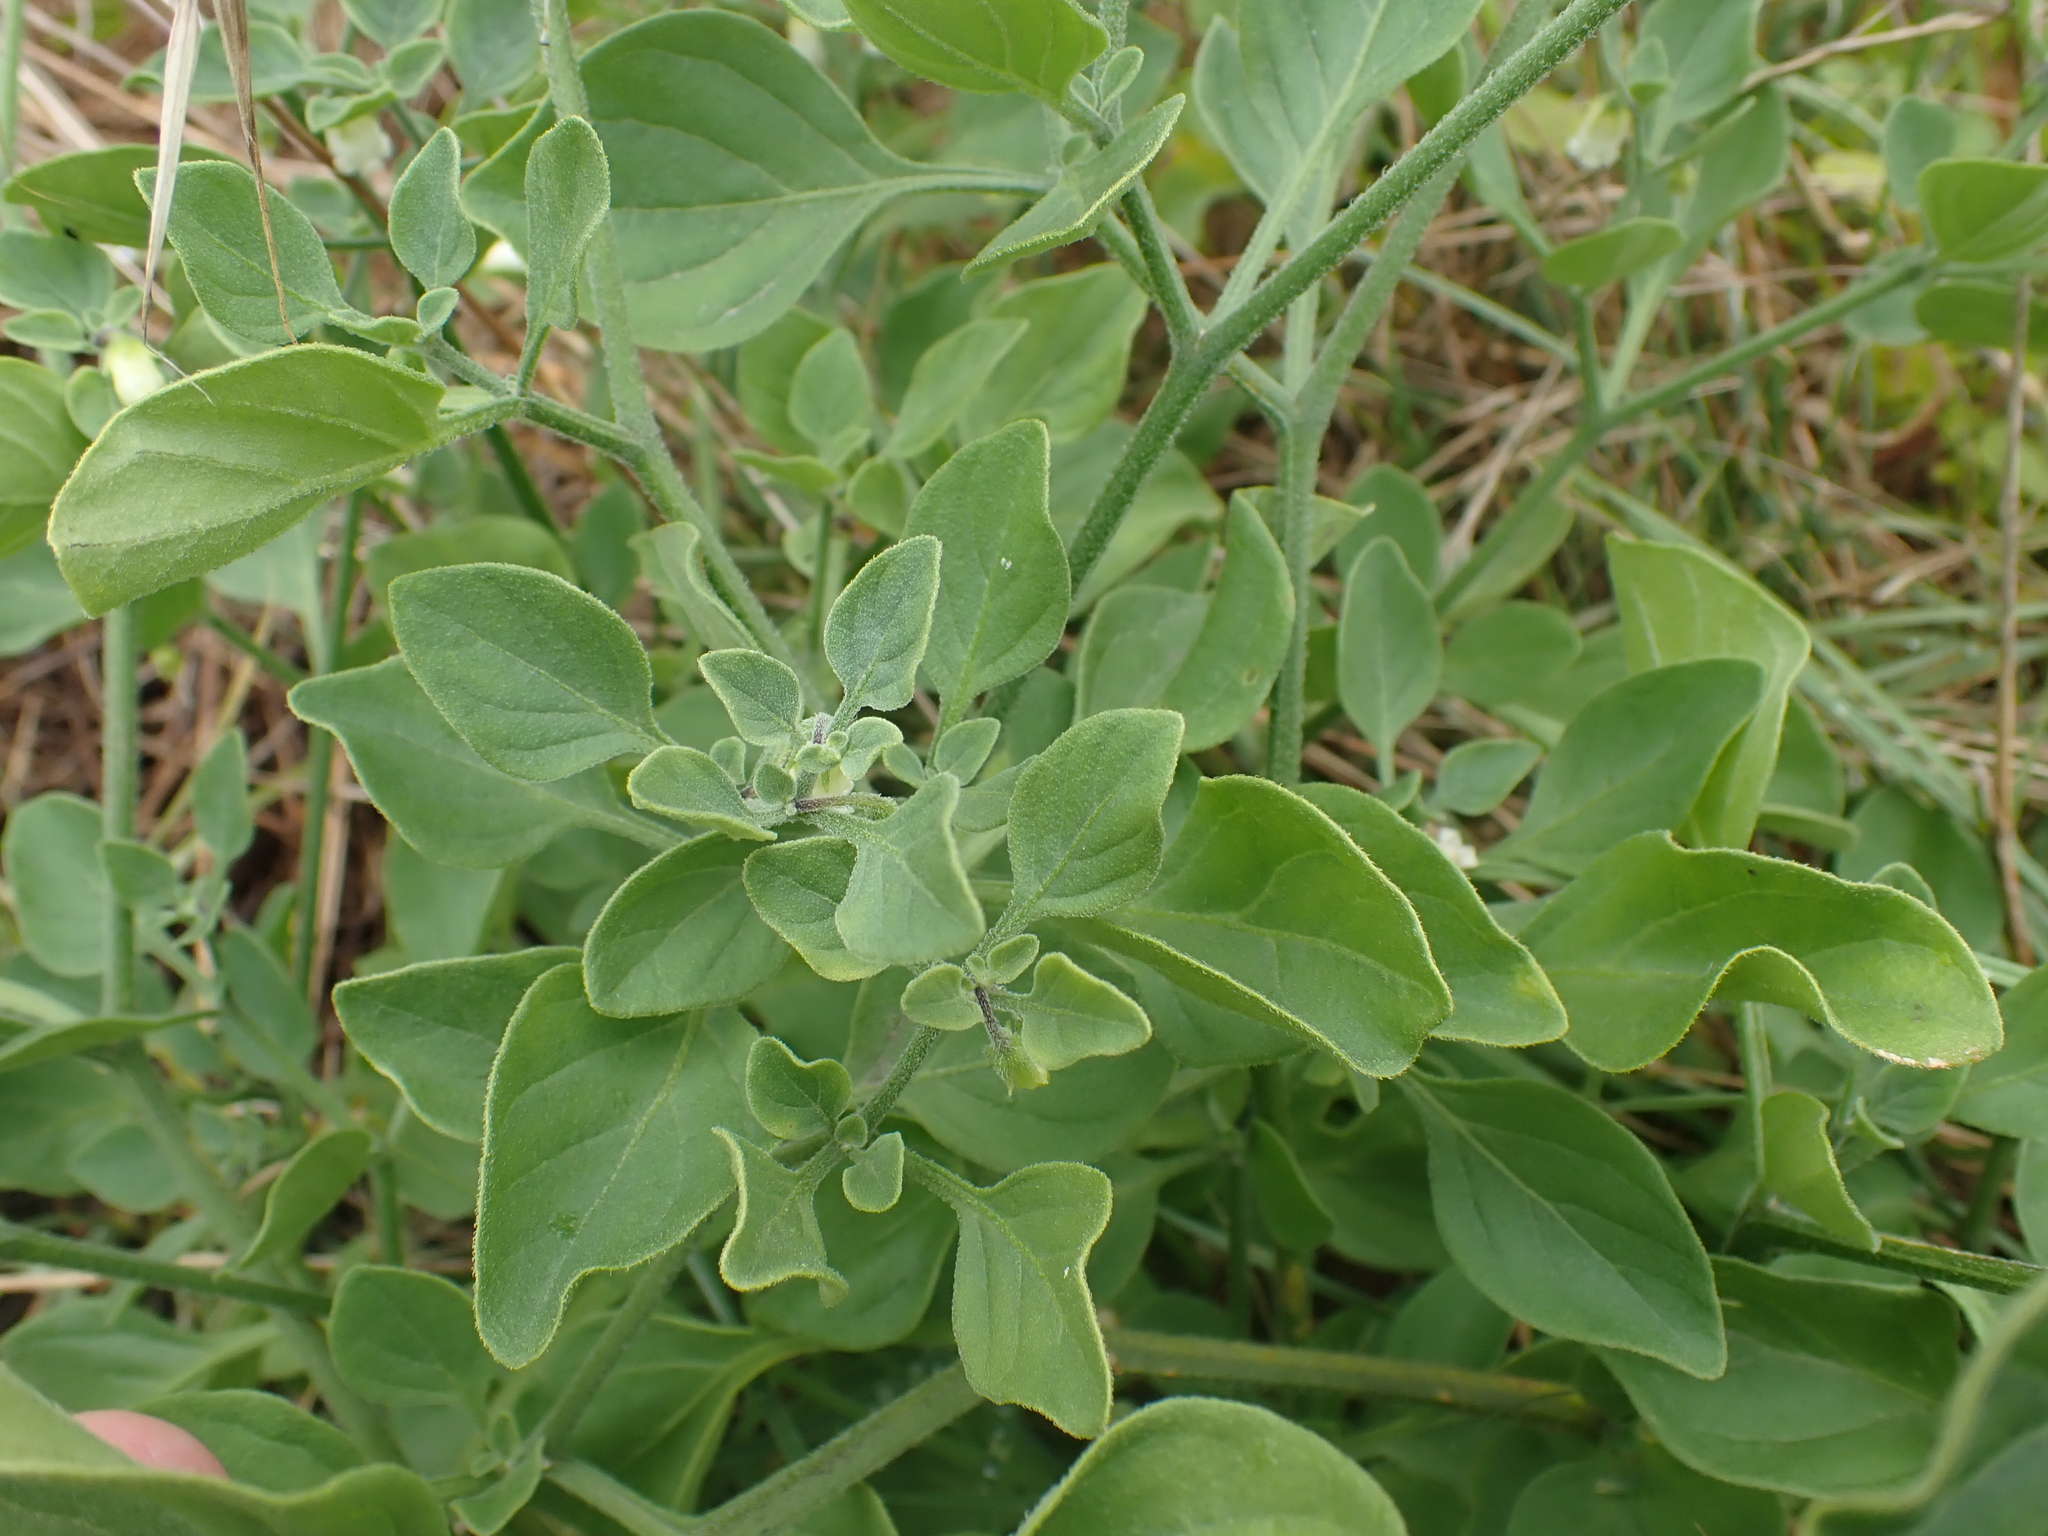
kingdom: Plantae
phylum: Tracheophyta
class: Magnoliopsida
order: Solanales
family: Solanaceae
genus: Salpichroa
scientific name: Salpichroa origanifolia
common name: Lily-of-the-valley-vine
